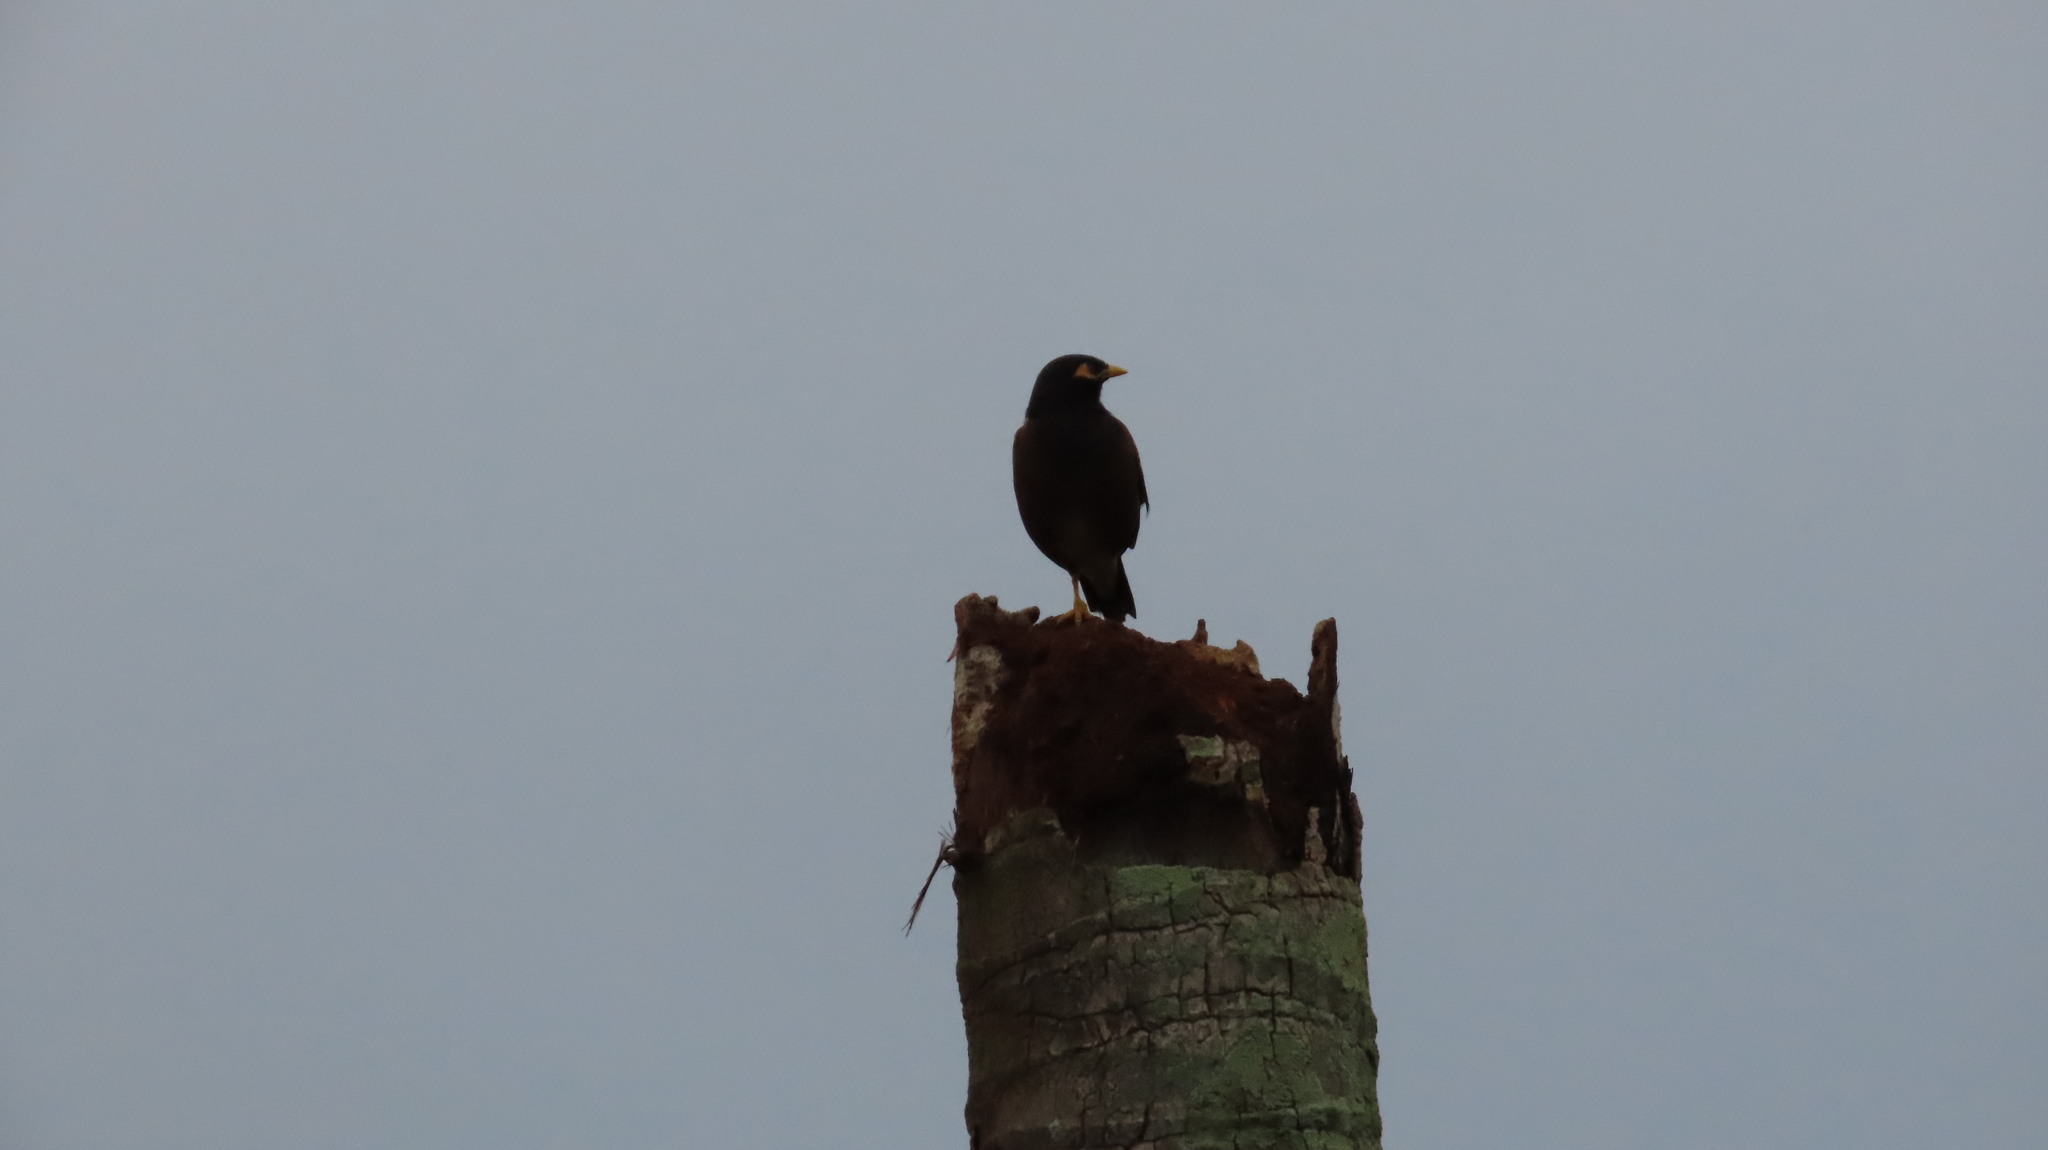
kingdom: Animalia
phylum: Chordata
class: Aves
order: Passeriformes
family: Sturnidae
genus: Acridotheres
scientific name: Acridotheres tristis
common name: Common myna
